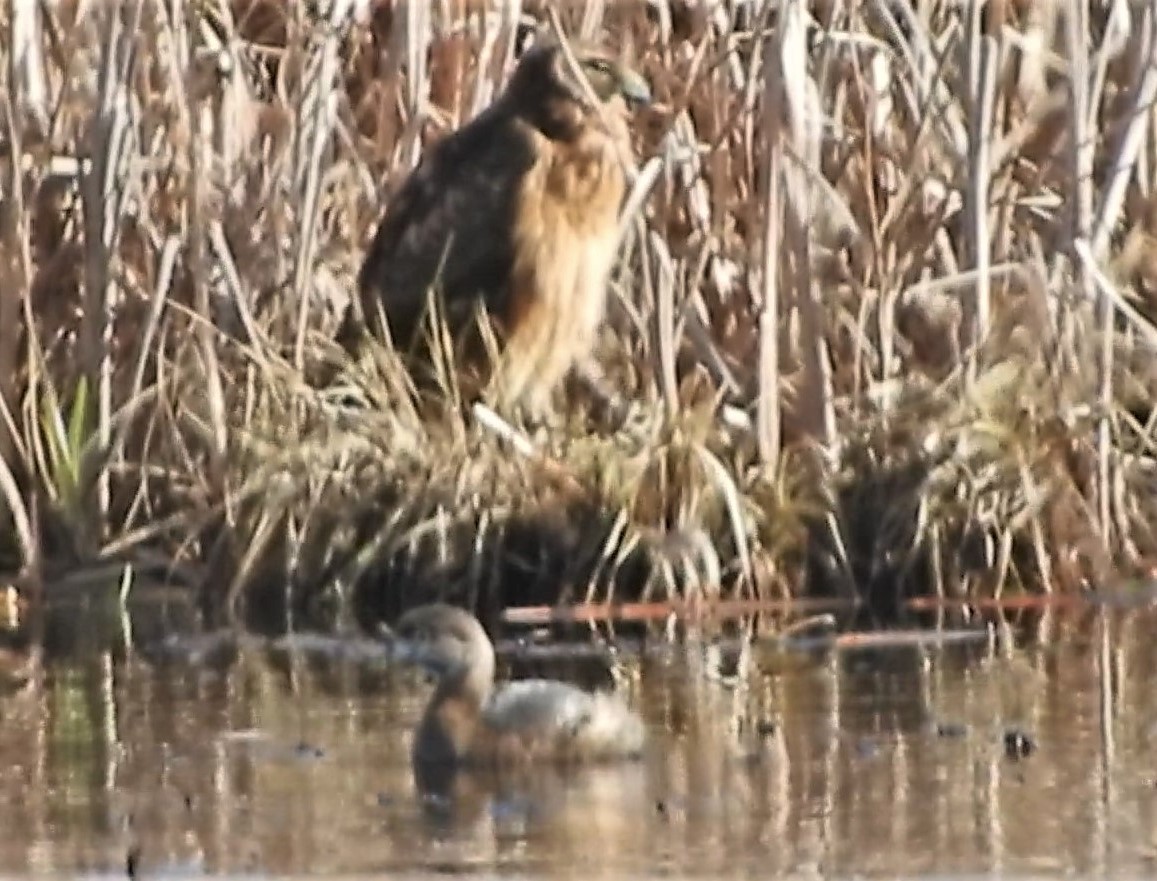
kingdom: Animalia
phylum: Chordata
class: Aves
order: Accipitriformes
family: Accipitridae
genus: Circus
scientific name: Circus cyaneus
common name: Hen harrier
